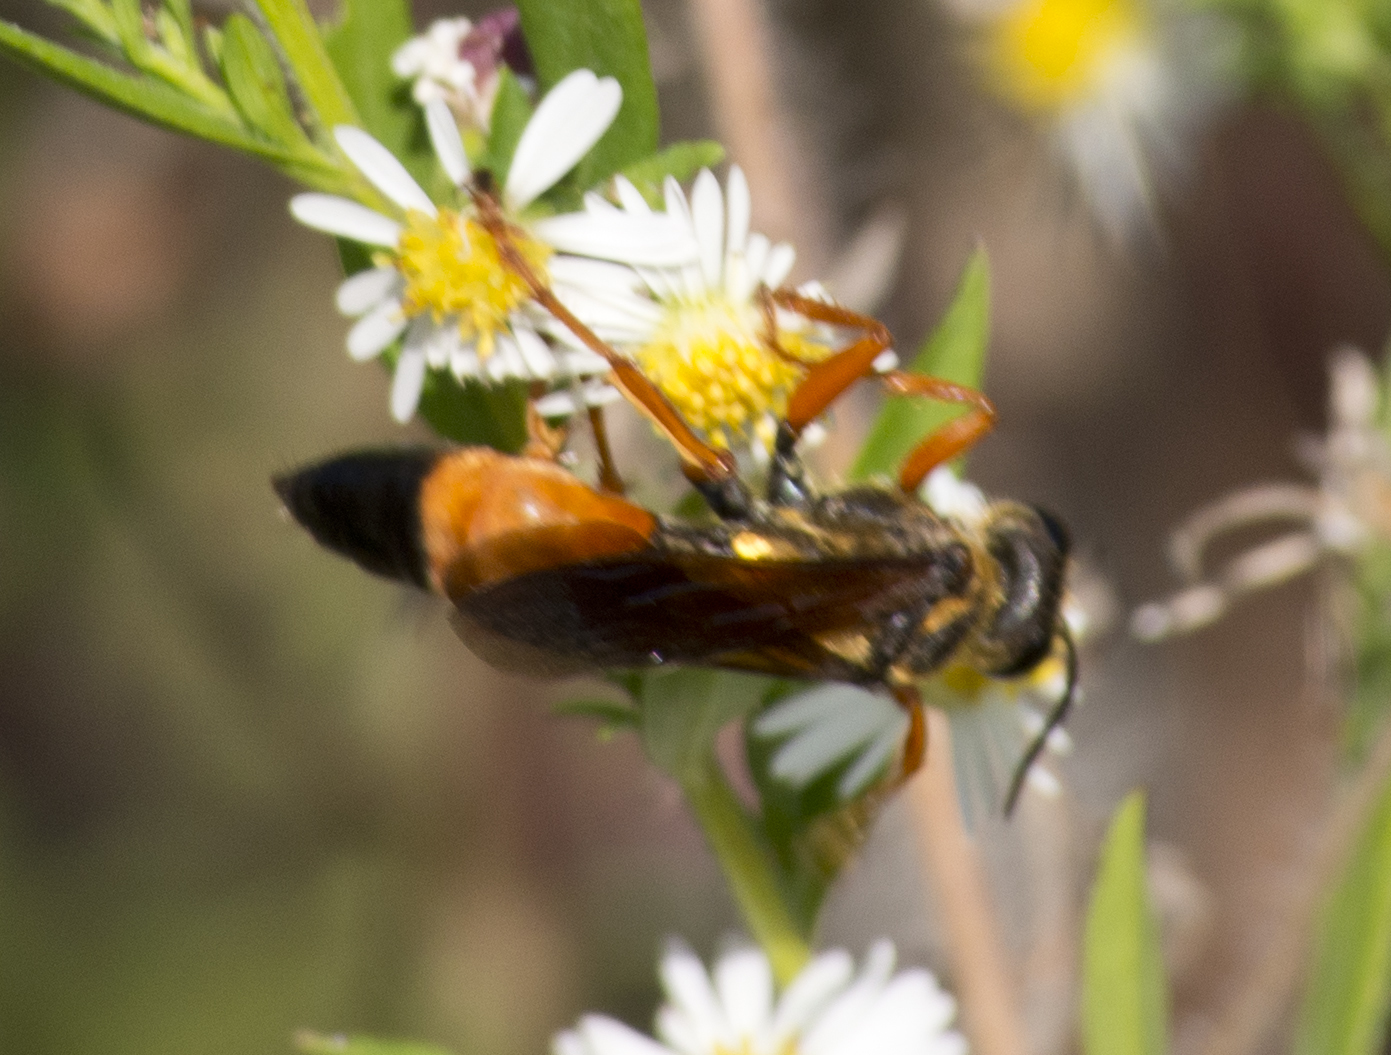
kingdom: Animalia
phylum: Arthropoda
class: Insecta
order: Hymenoptera
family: Sphecidae
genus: Sphex
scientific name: Sphex ichneumoneus
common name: Great golden digger wasp
